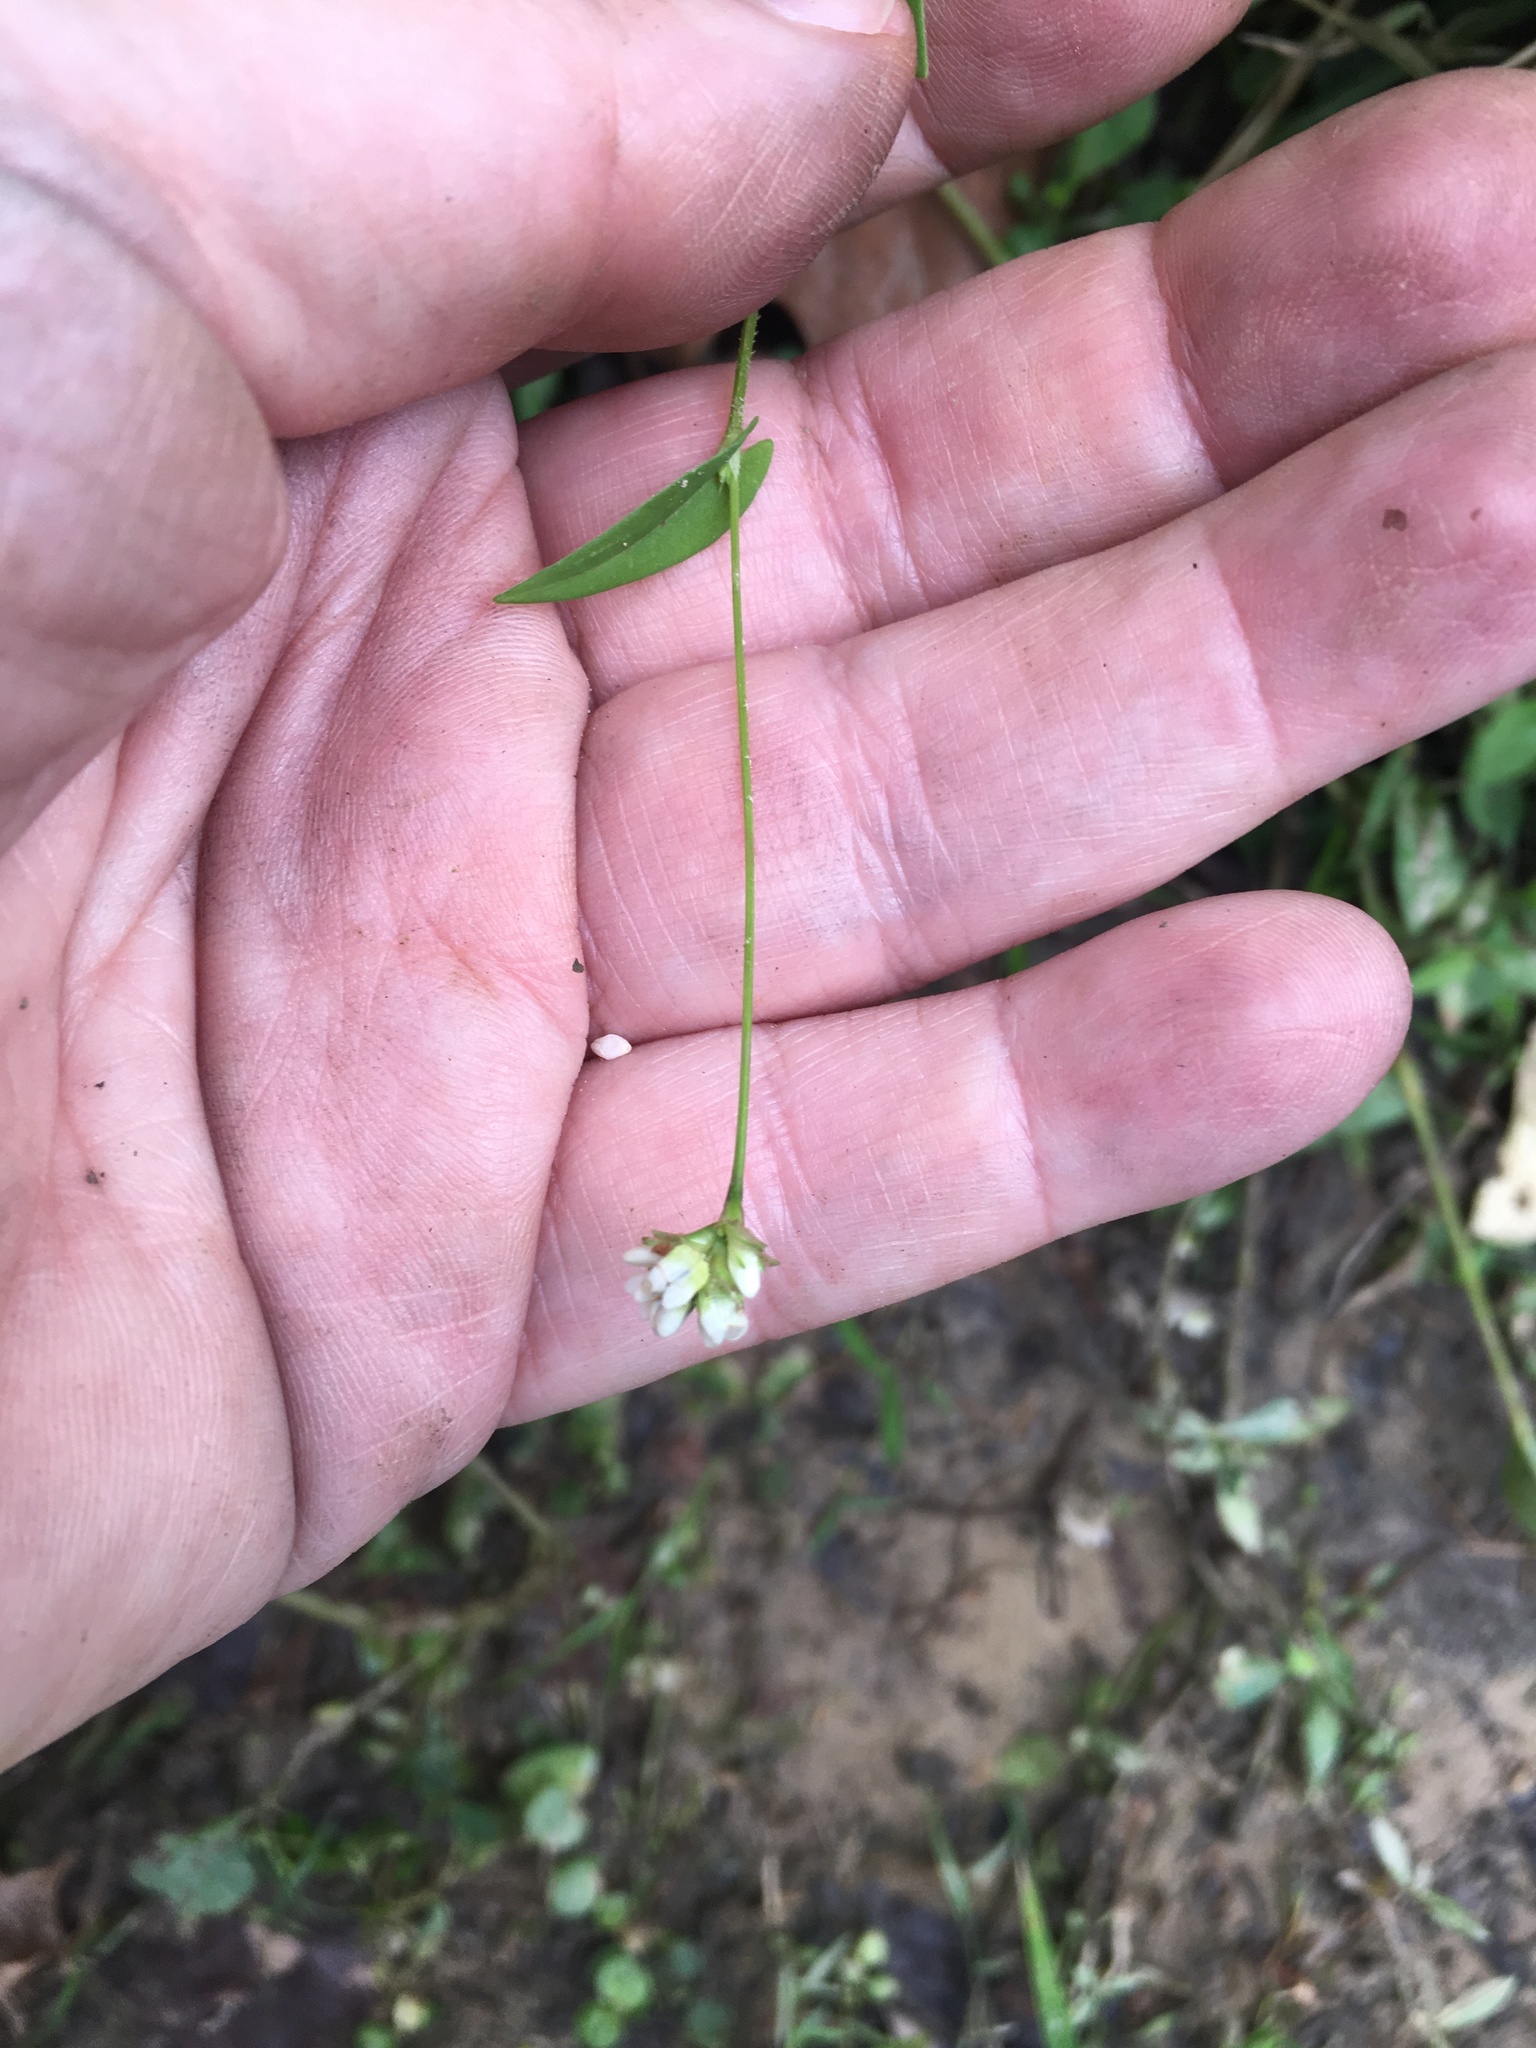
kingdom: Plantae
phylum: Tracheophyta
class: Magnoliopsida
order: Caryophyllales
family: Polygonaceae
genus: Persicaria
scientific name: Persicaria sagittata
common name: American tearthumb
